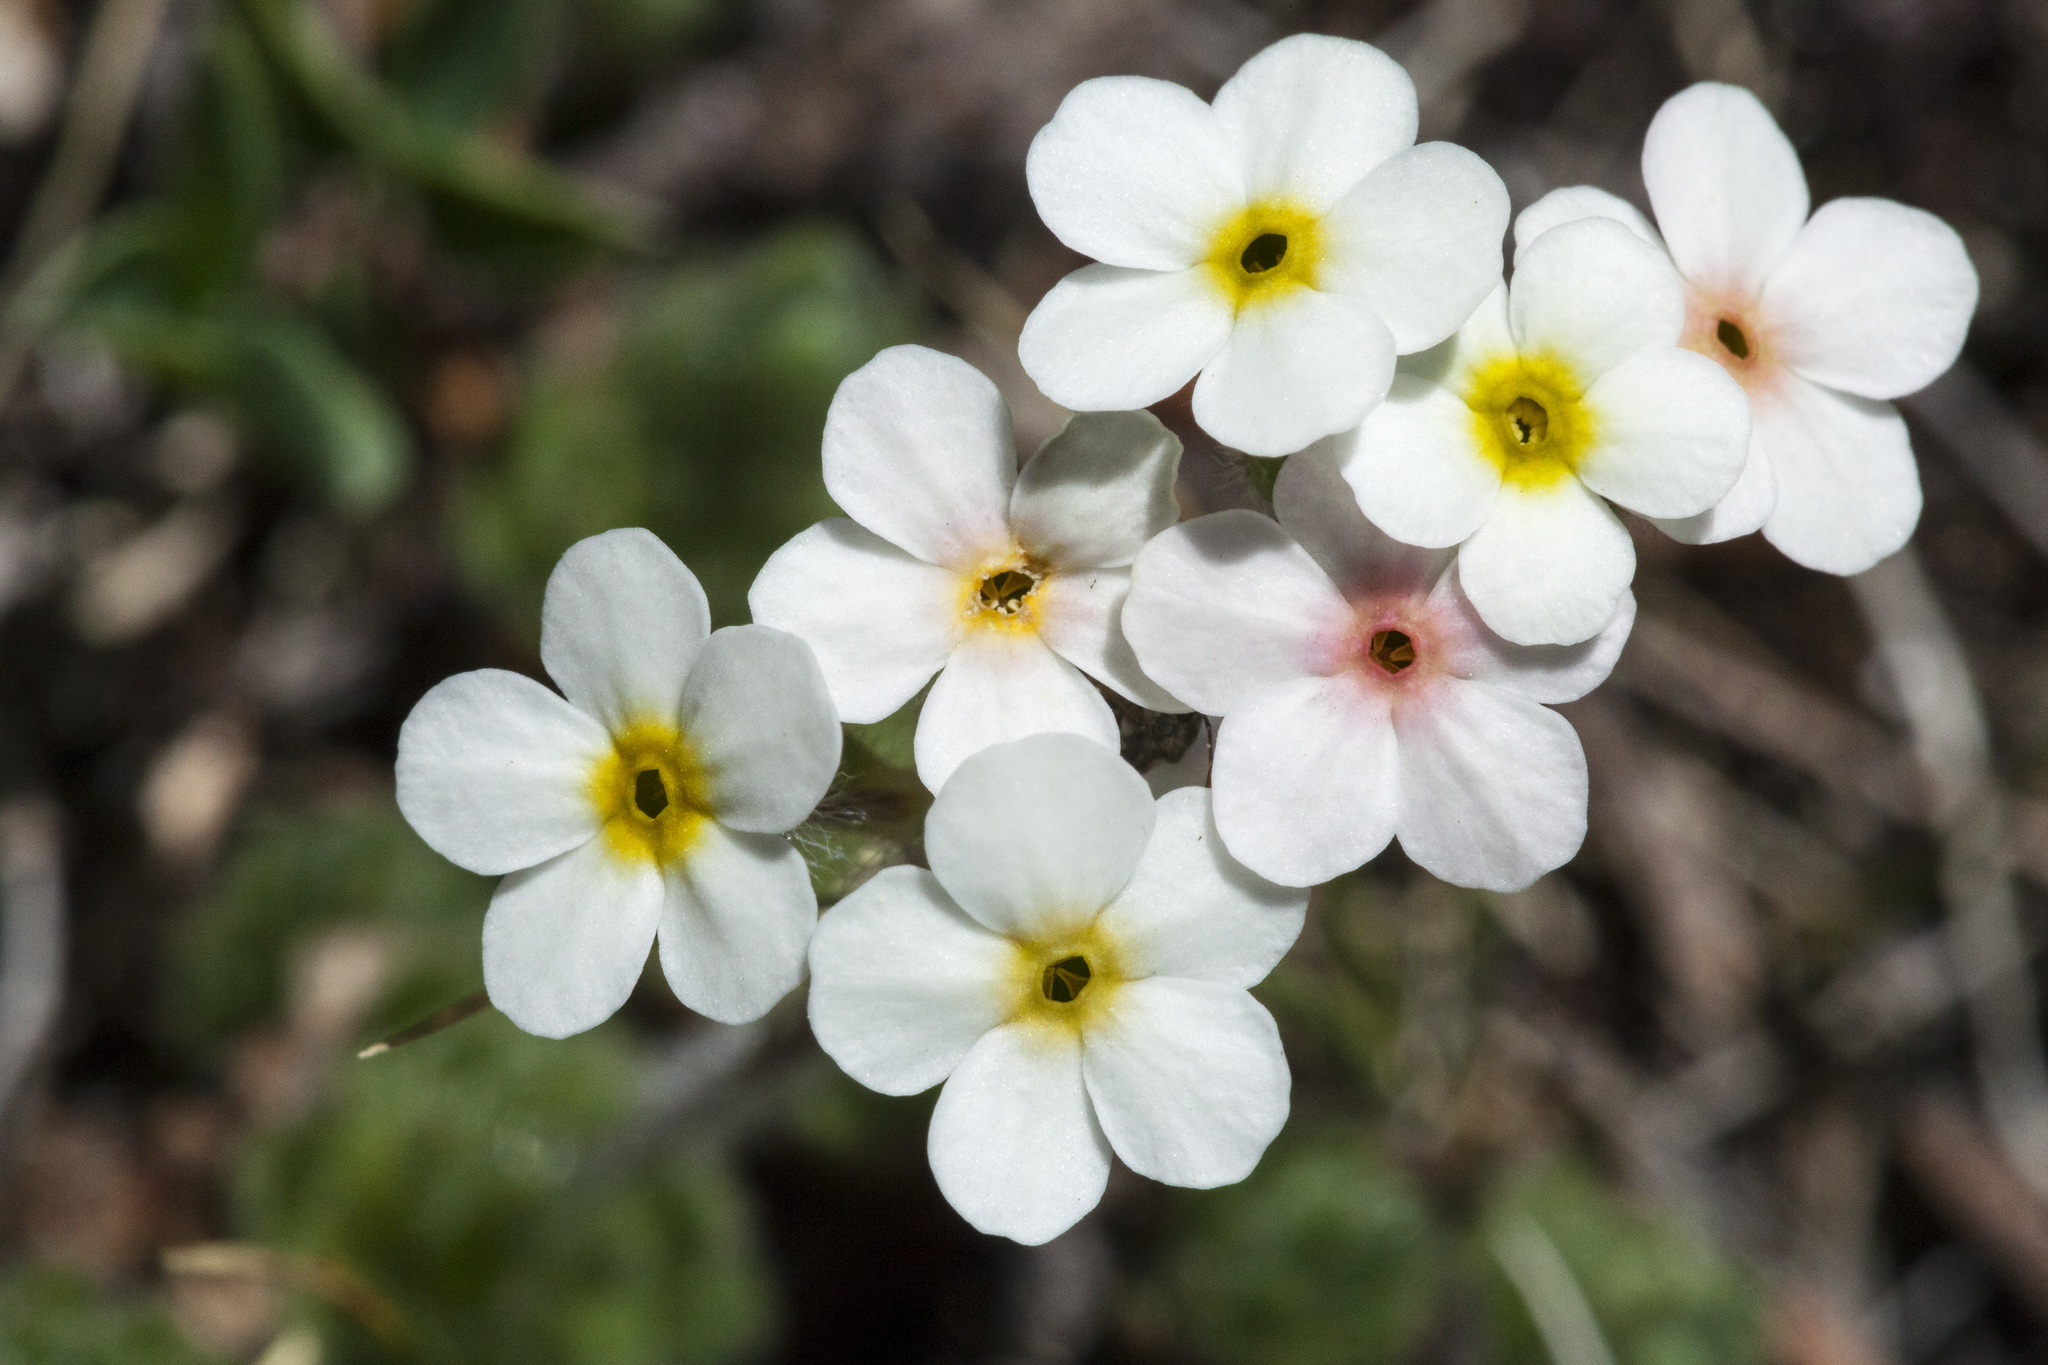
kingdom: Plantae
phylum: Tracheophyta
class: Magnoliopsida
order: Ericales
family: Primulaceae
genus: Androsace
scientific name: Androsace chamaejasme
